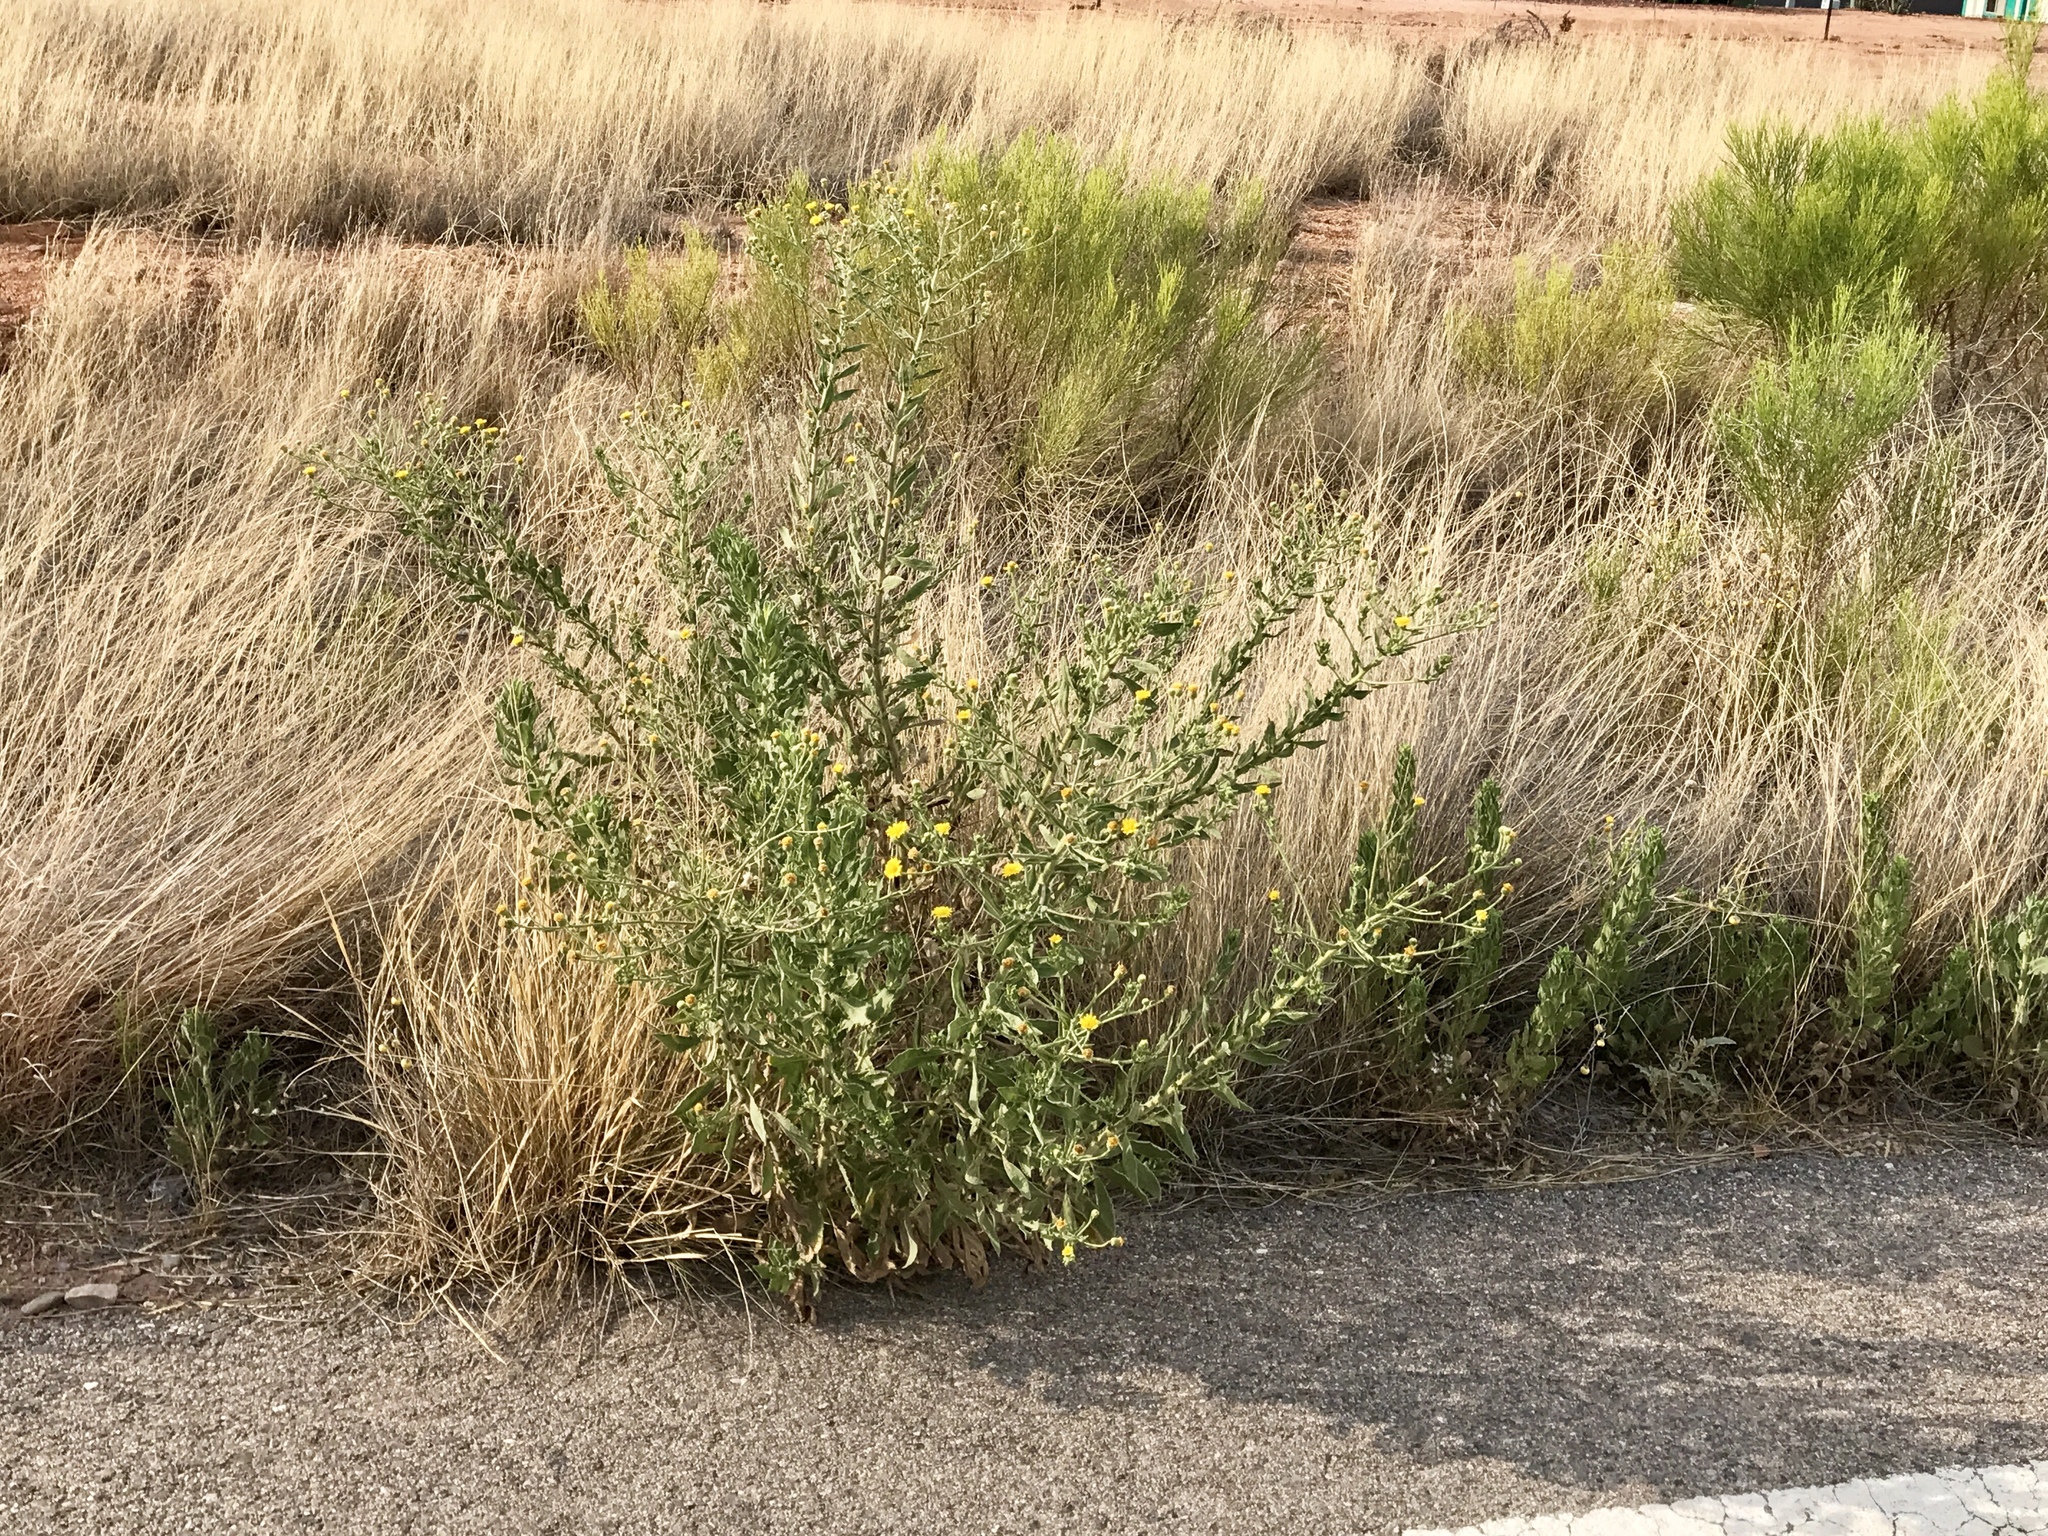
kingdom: Plantae
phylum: Tracheophyta
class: Magnoliopsida
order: Asterales
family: Asteraceae
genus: Heterotheca
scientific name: Heterotheca subaxillaris
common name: Camphorweed
